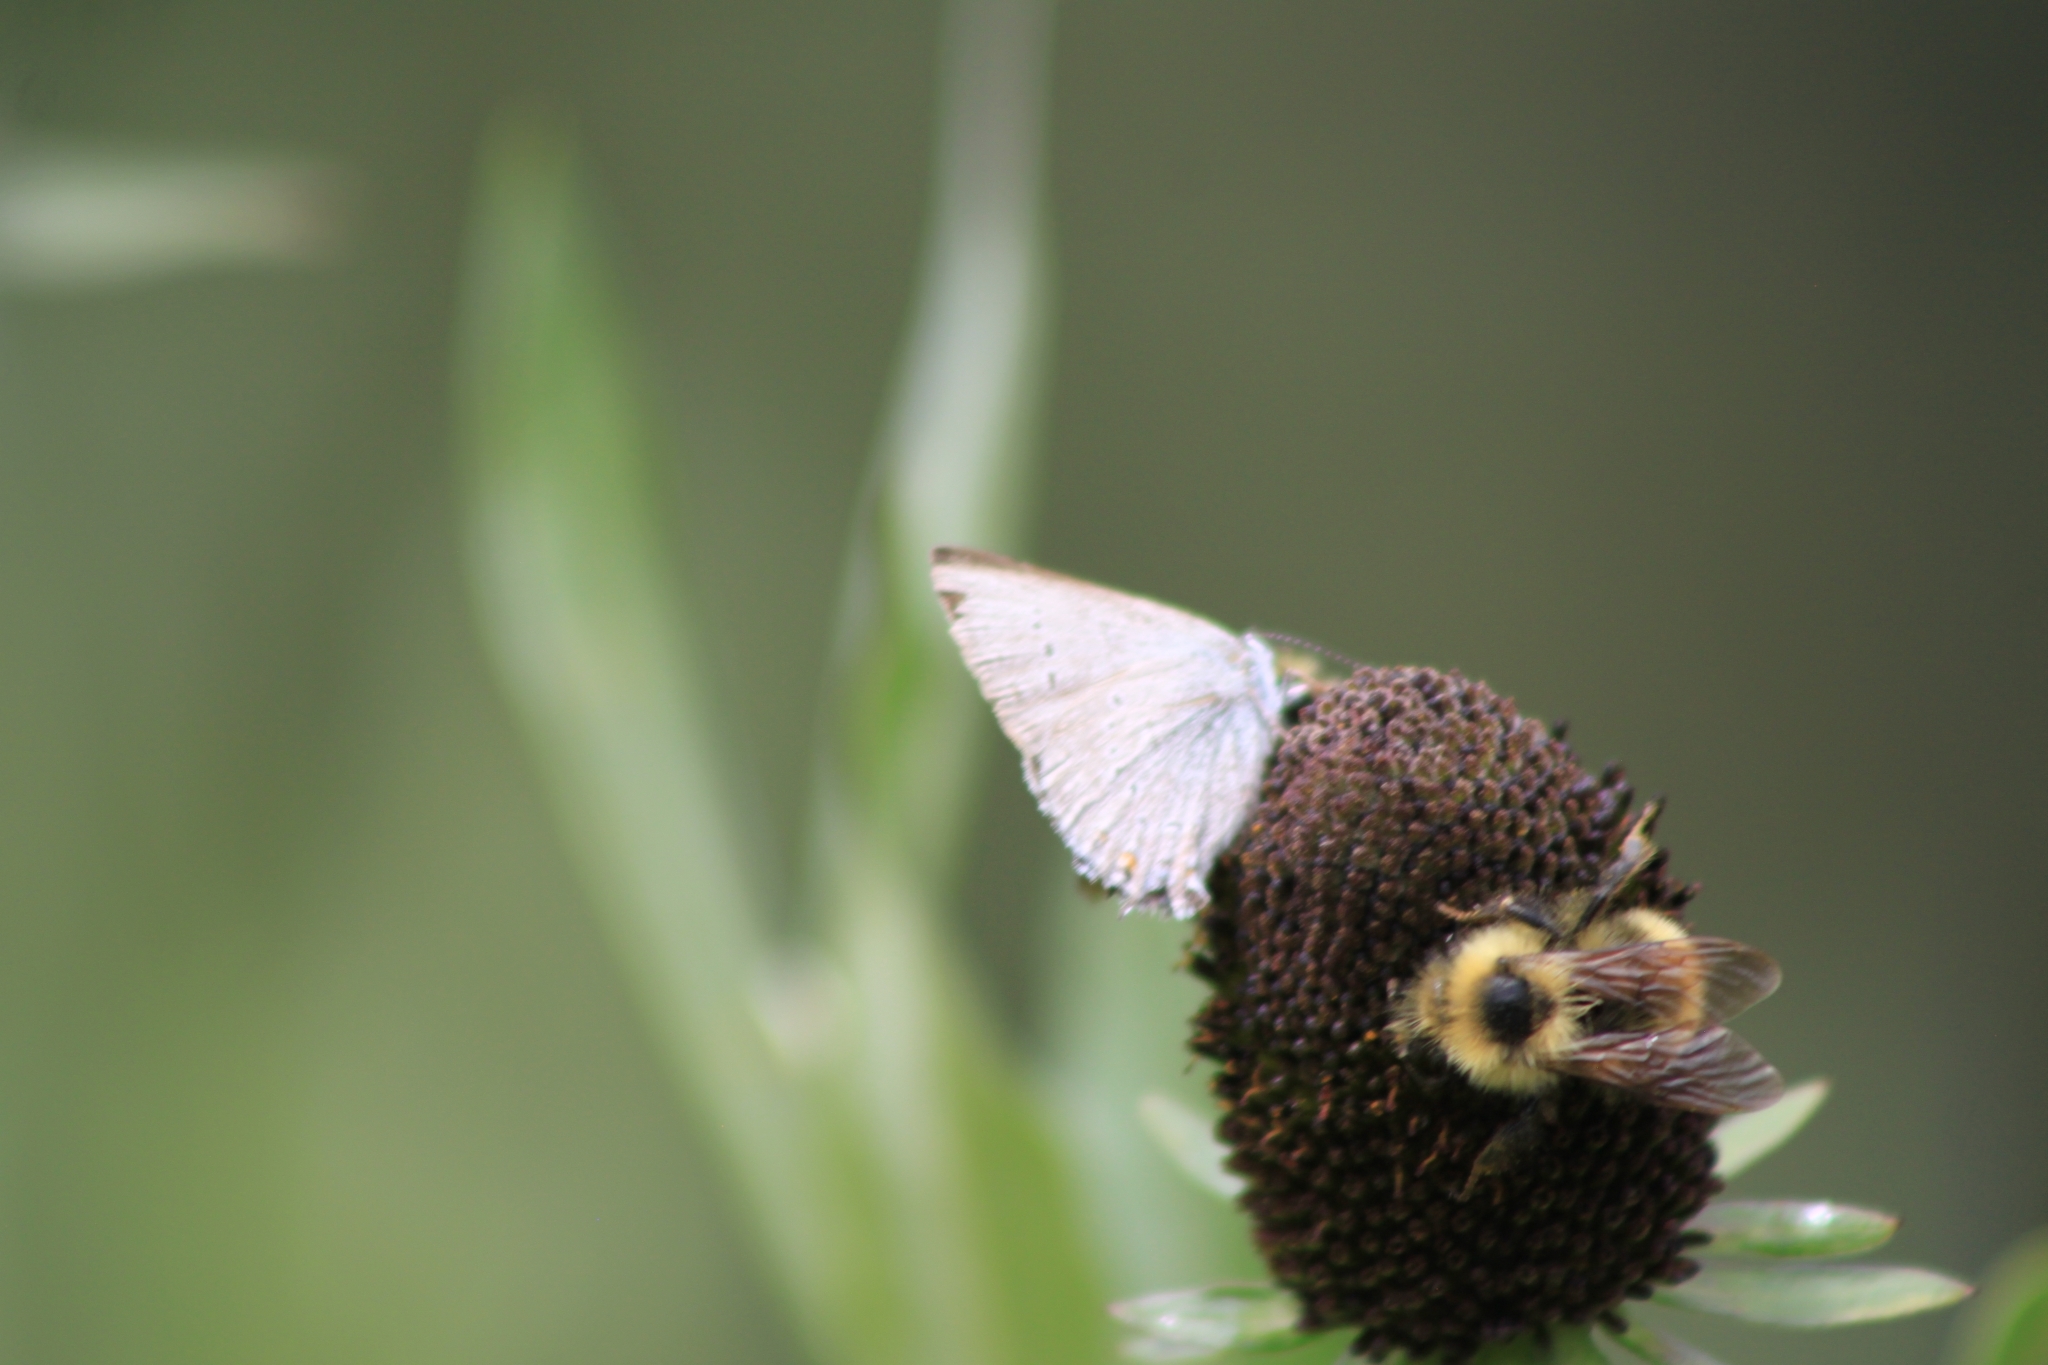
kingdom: Animalia
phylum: Arthropoda
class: Insecta
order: Lepidoptera
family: Lycaenidae
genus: Strymon
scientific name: Strymon sylvinus
